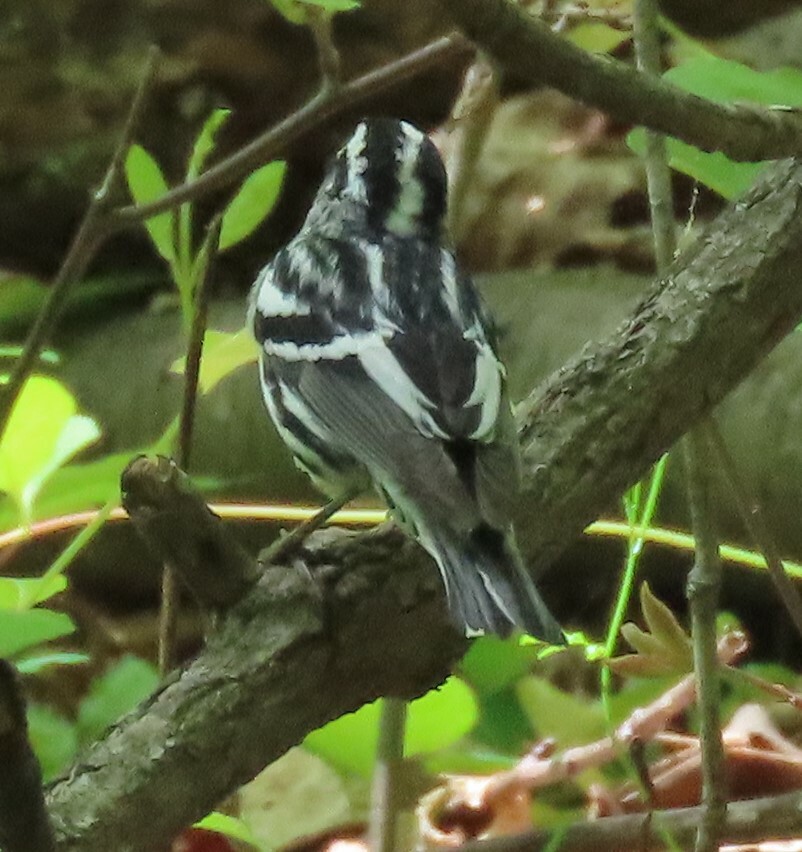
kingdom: Animalia
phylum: Chordata
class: Aves
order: Passeriformes
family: Parulidae
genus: Mniotilta
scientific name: Mniotilta varia
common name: Black-and-white warbler
